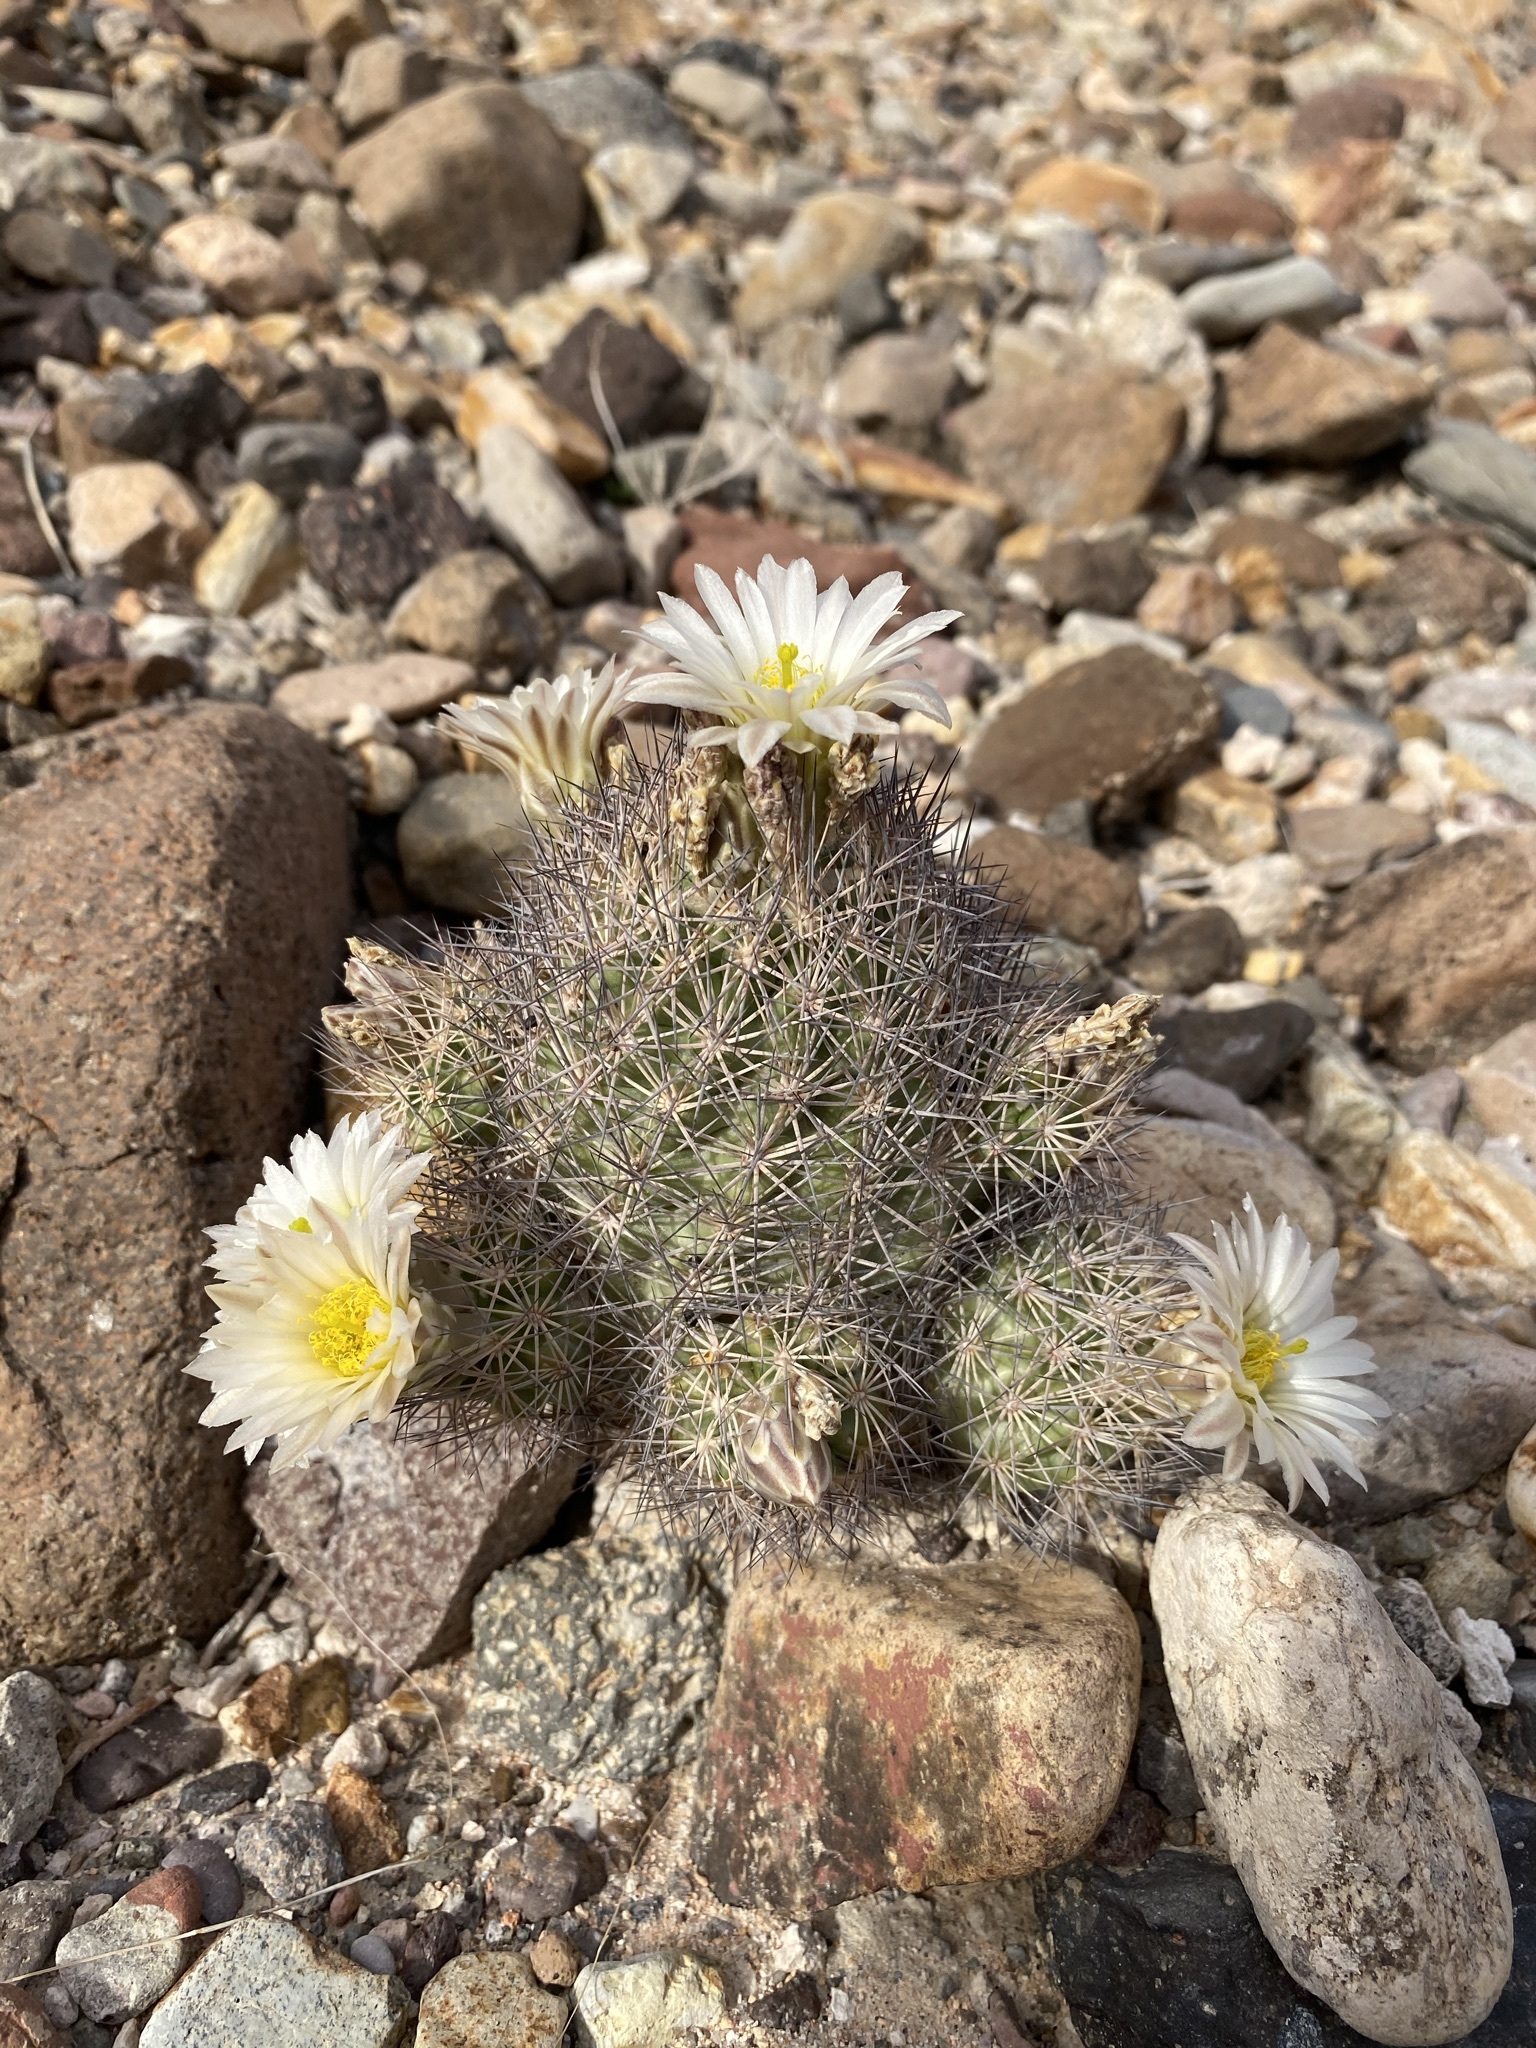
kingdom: Plantae
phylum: Tracheophyta
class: Magnoliopsida
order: Caryophyllales
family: Cactaceae
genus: Sclerocactus
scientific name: Sclerocactus warnockii
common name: Pineapple cactus
